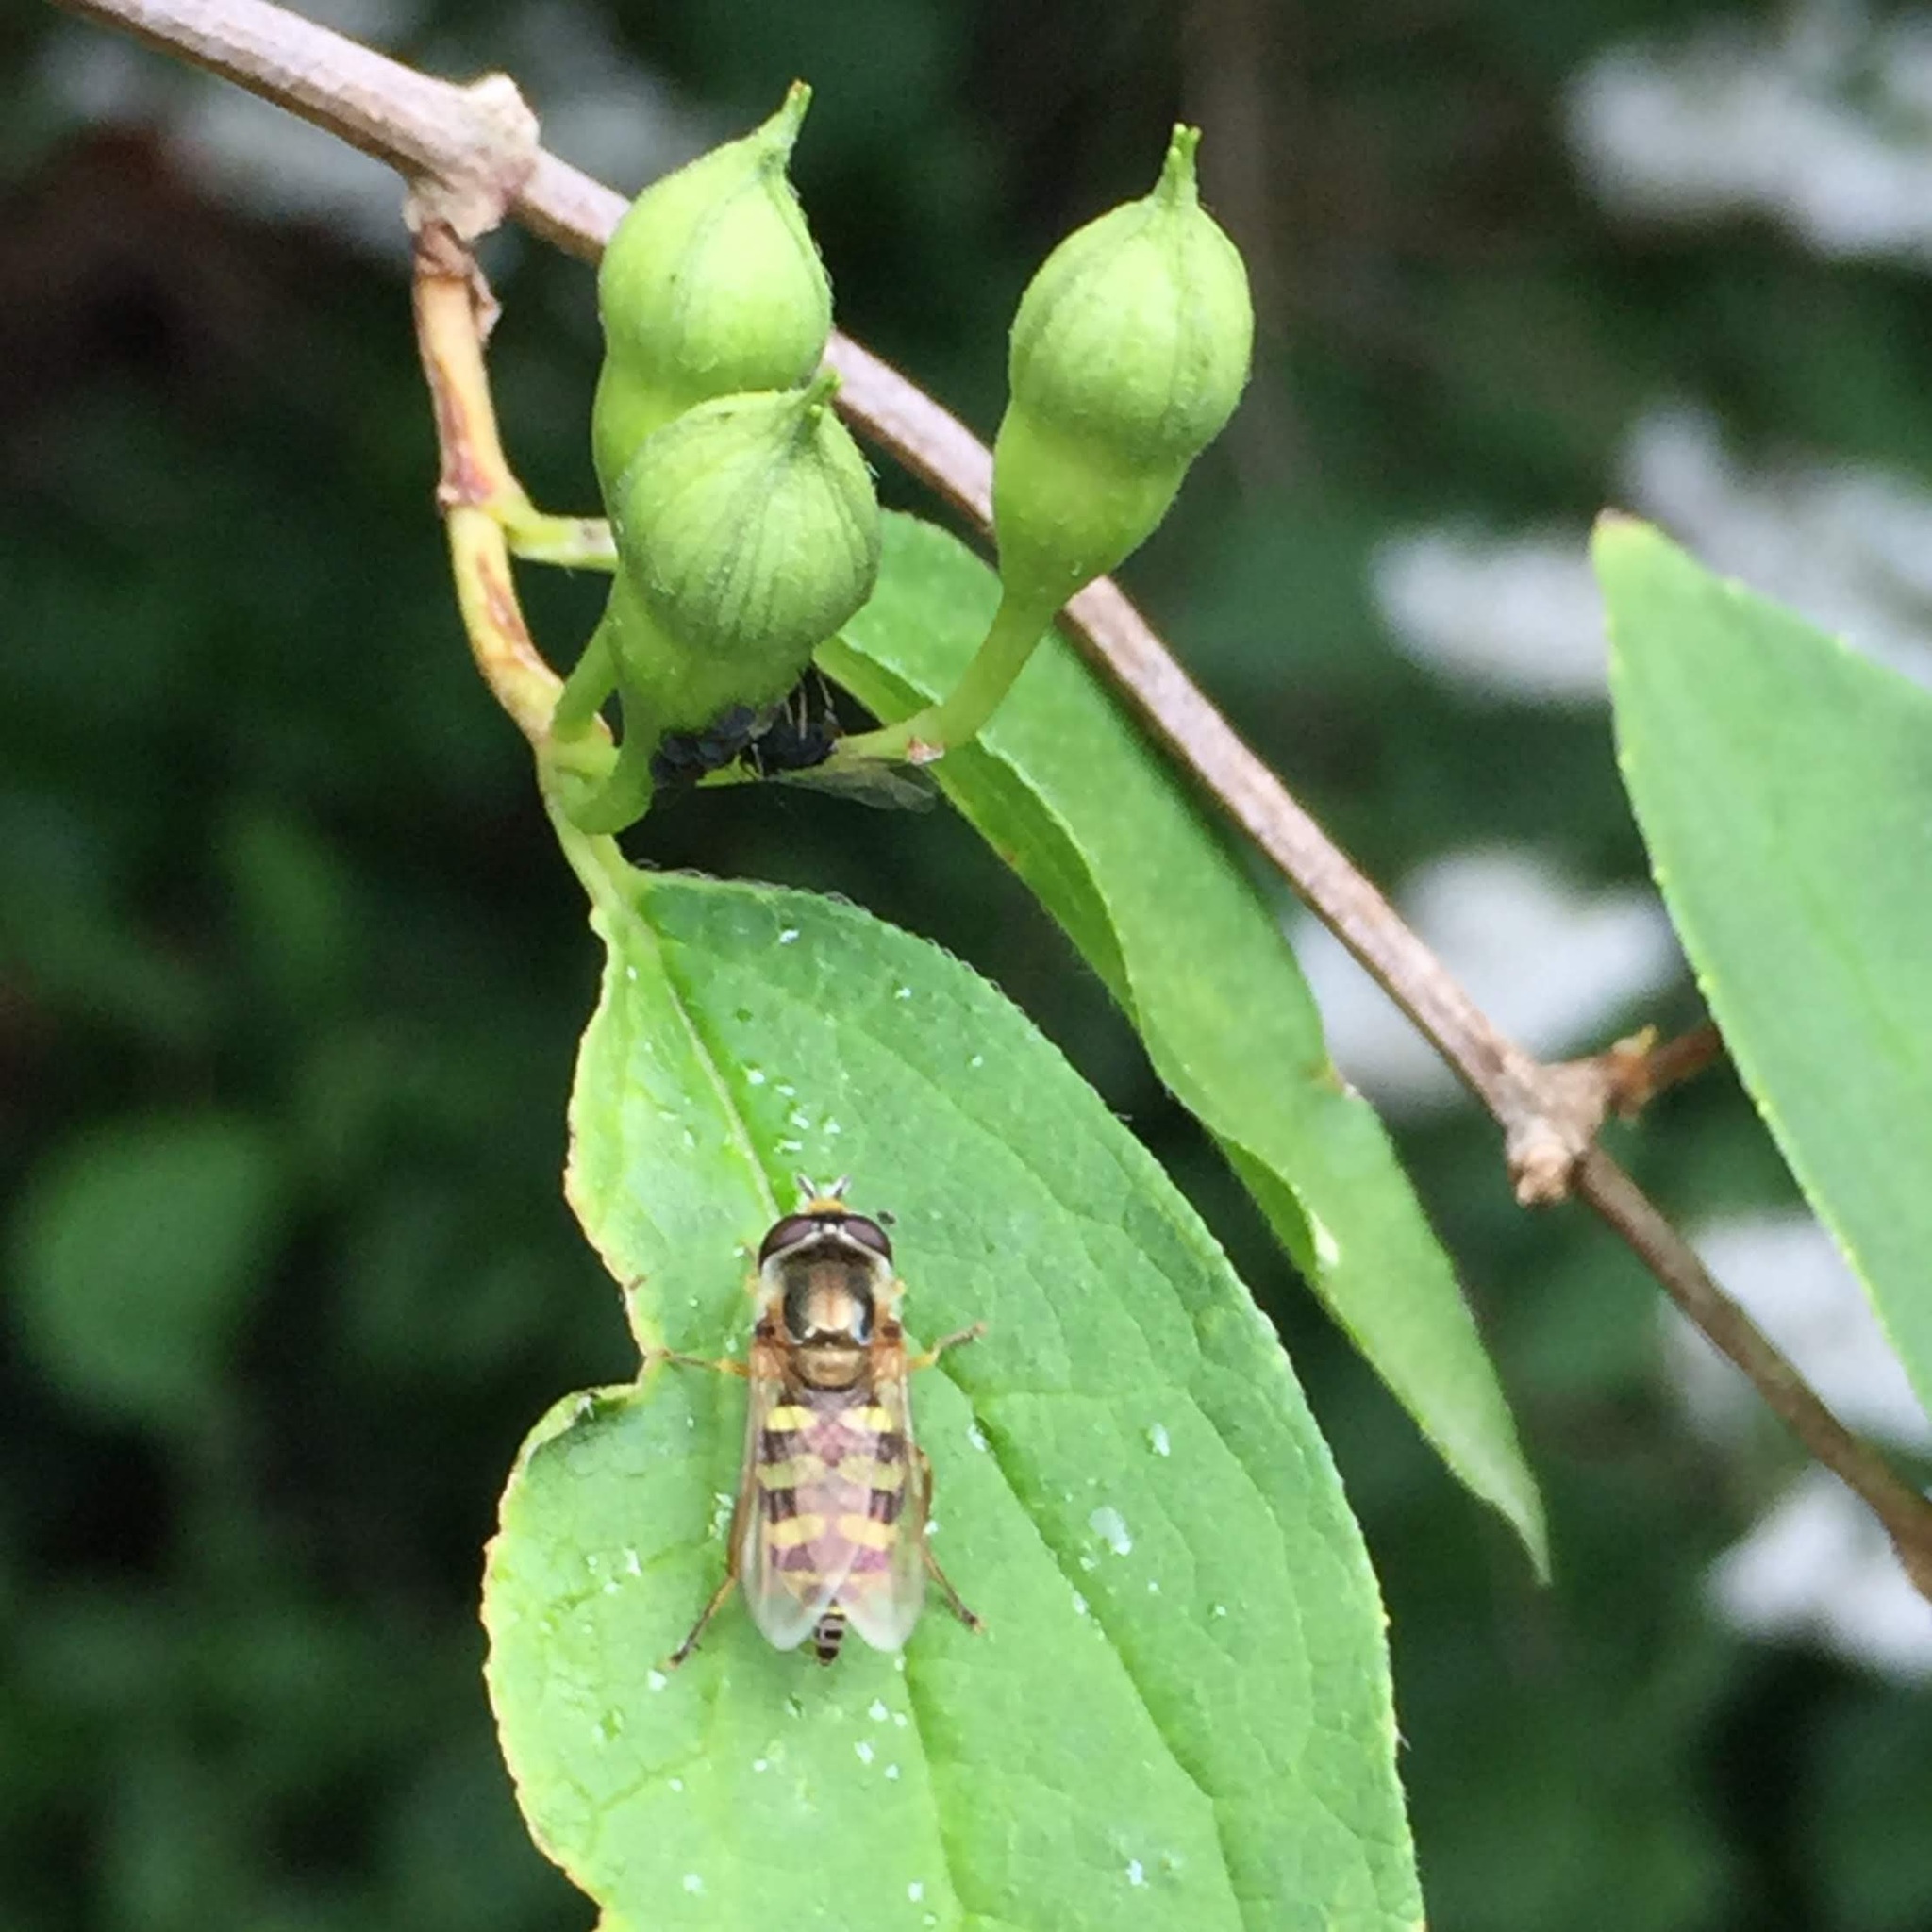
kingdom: Animalia
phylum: Arthropoda
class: Insecta
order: Diptera
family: Syrphidae
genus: Eupeodes
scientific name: Eupeodes corollae
